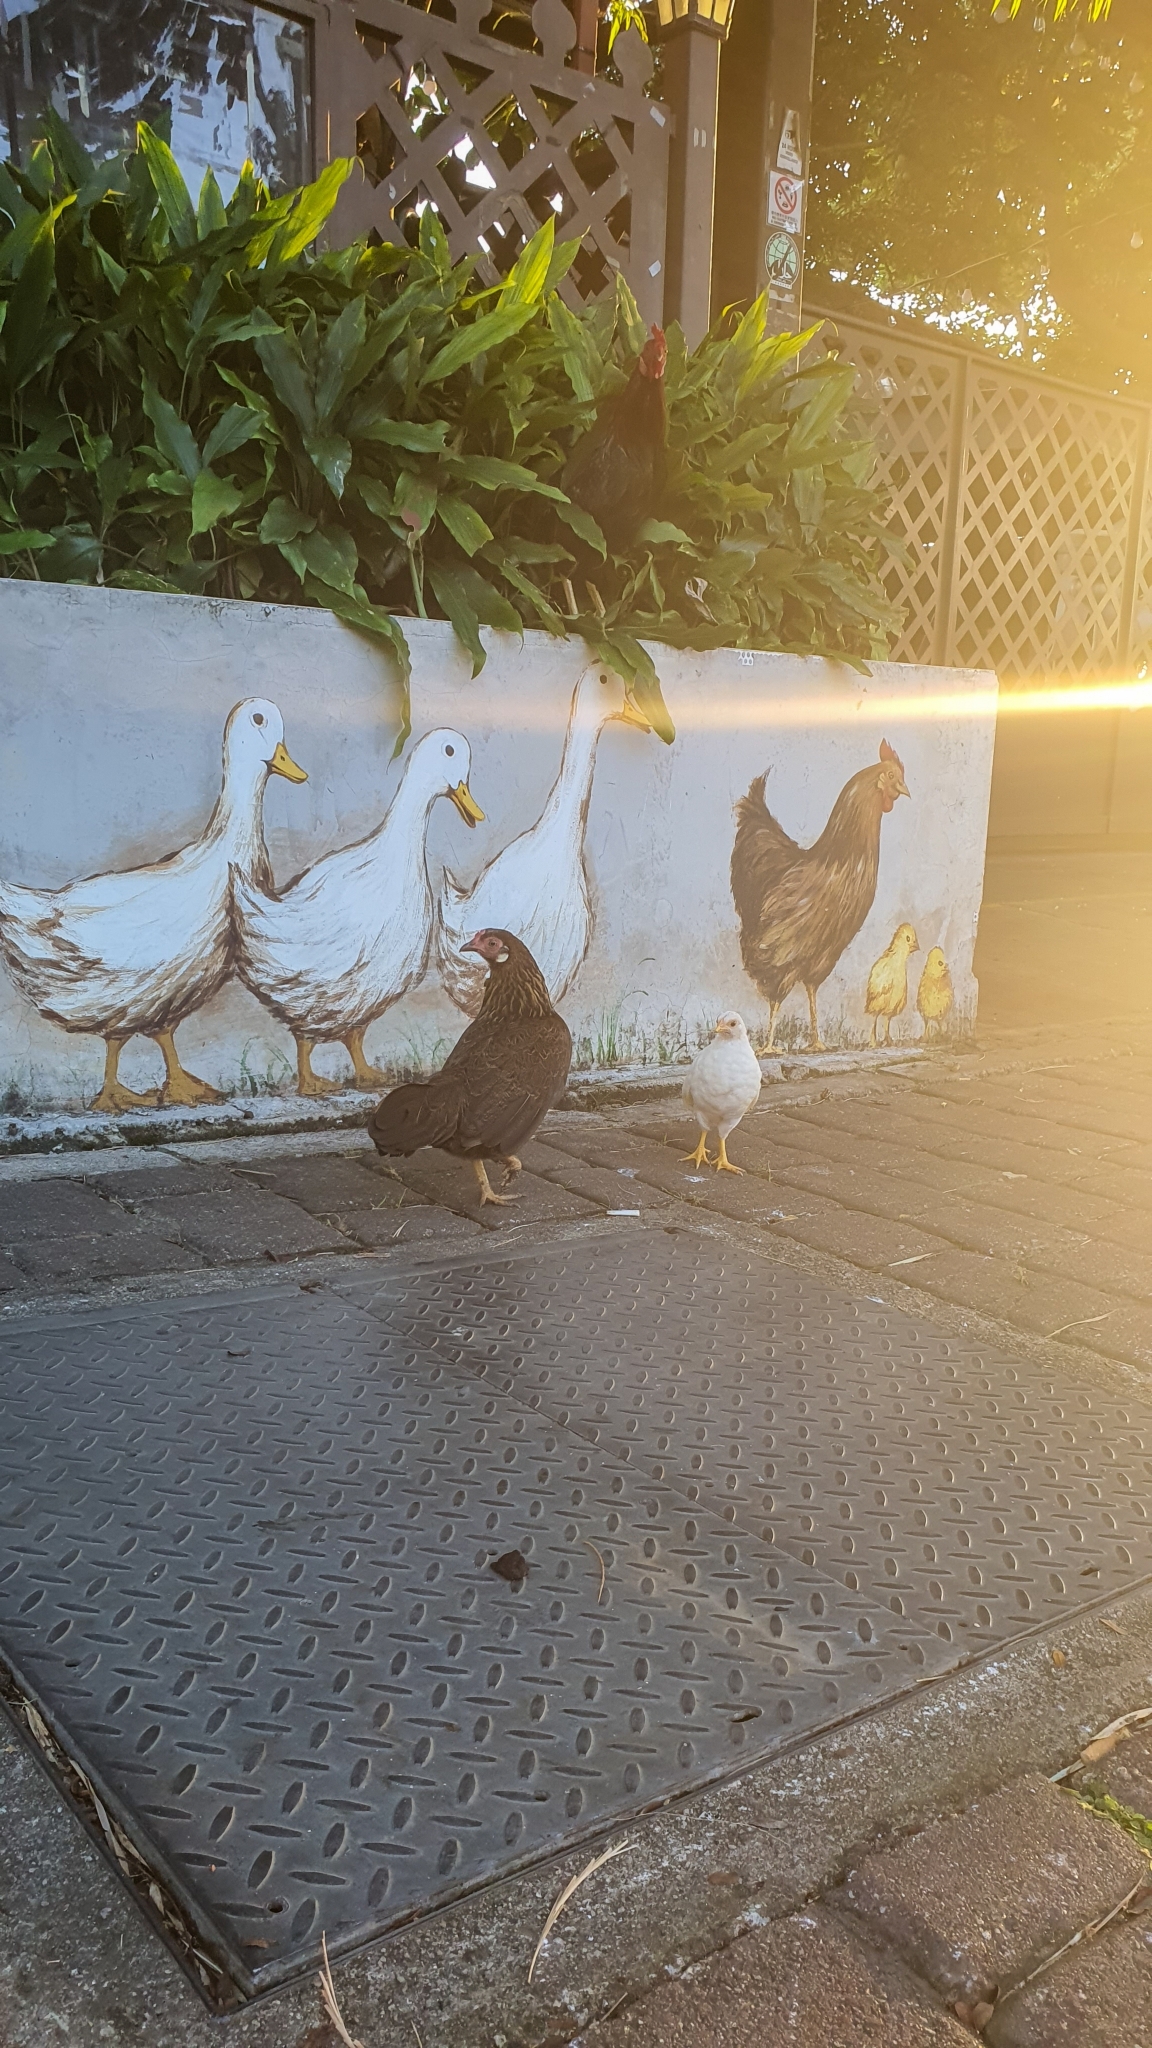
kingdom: Animalia
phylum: Chordata
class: Aves
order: Galliformes
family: Phasianidae
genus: Gallus
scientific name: Gallus gallus
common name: Red junglefowl
